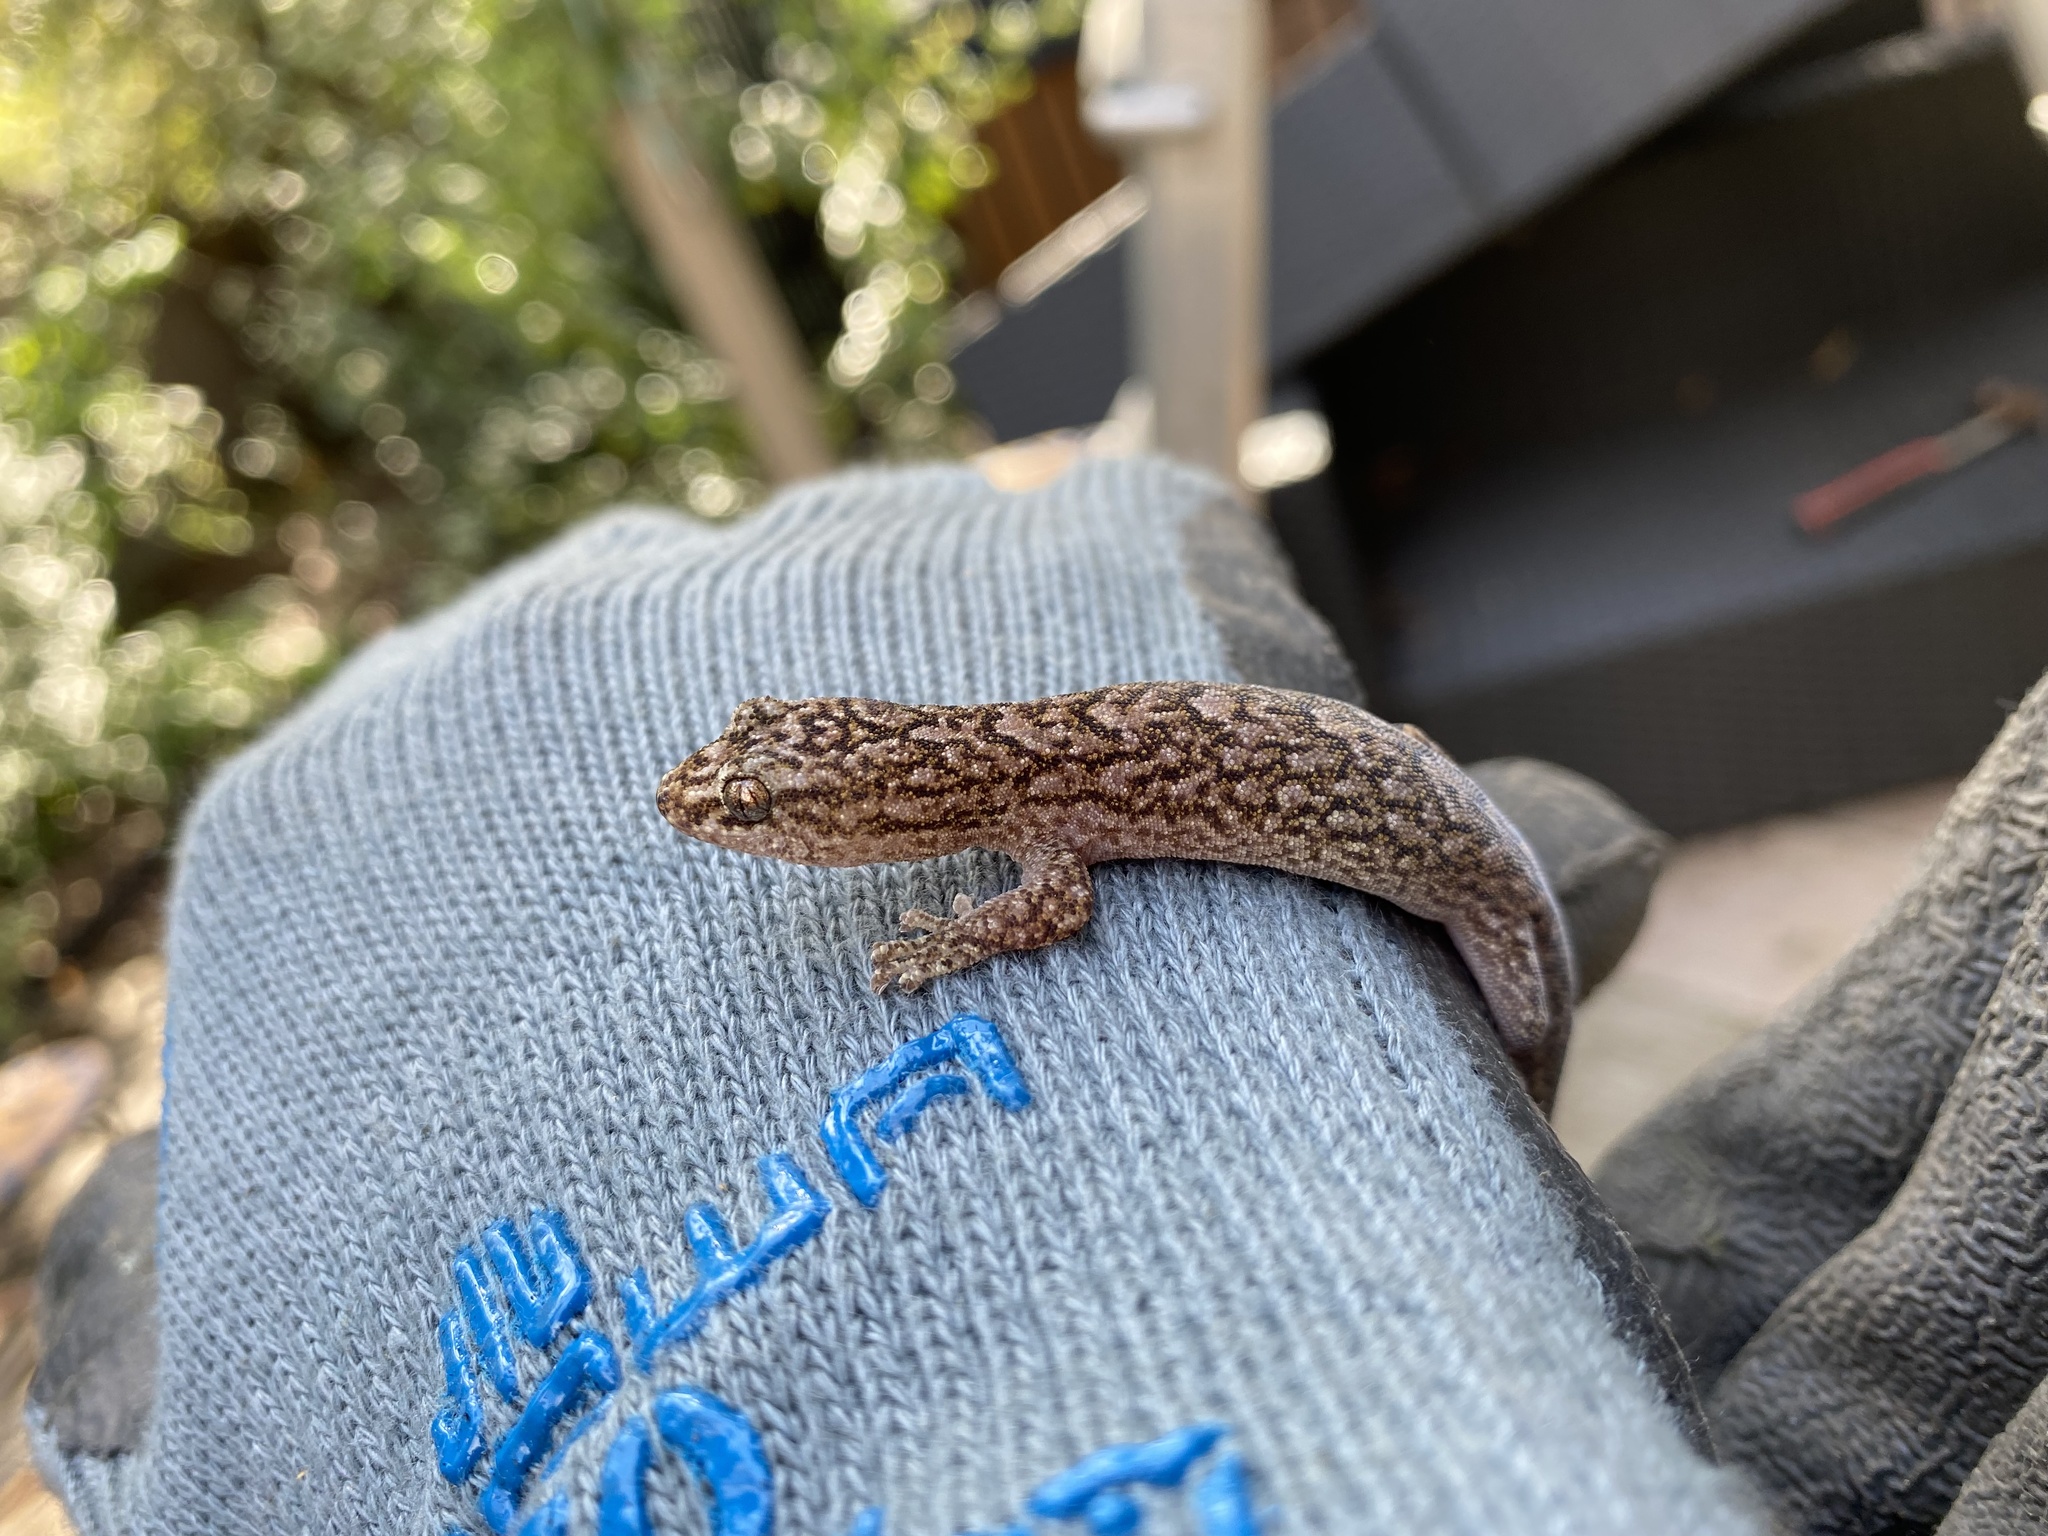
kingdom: Animalia
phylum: Chordata
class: Squamata
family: Gekkonidae
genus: Christinus
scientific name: Christinus marmoratus
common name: Marbled gecko
